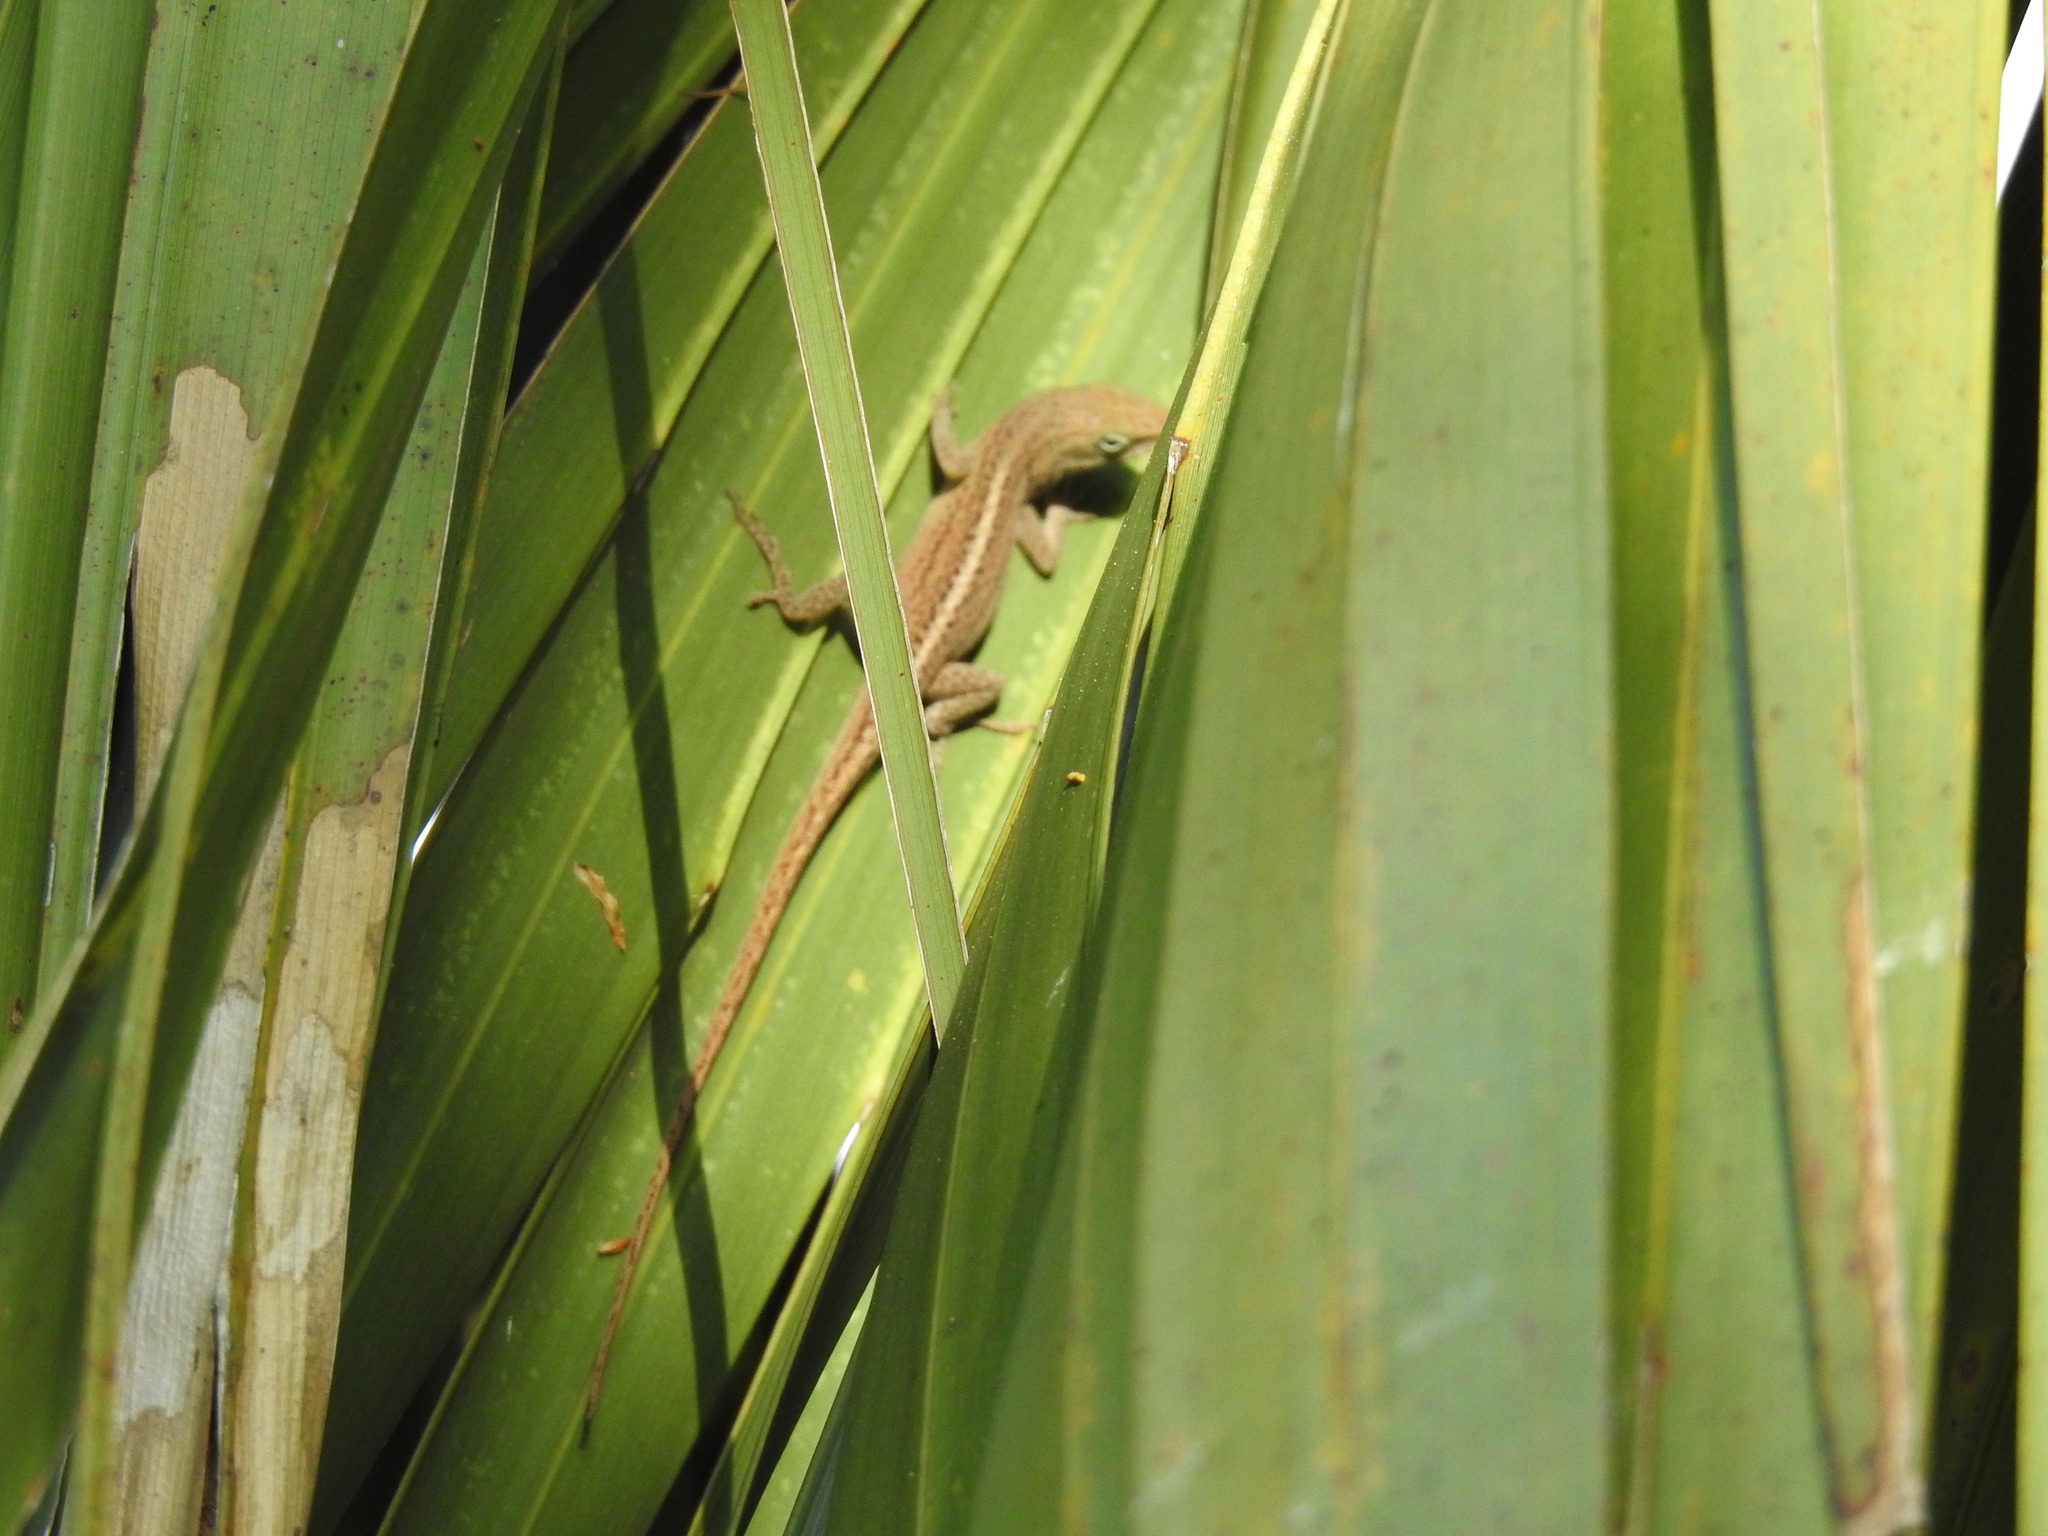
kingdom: Animalia
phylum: Chordata
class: Squamata
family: Dactyloidae
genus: Anolis
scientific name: Anolis carolinensis
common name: Green anole
